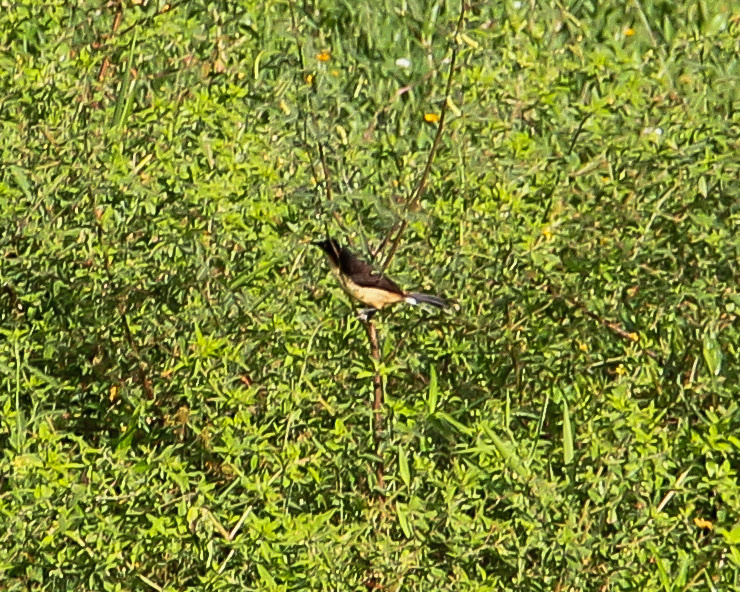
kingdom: Animalia
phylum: Chordata
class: Aves
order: Passeriformes
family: Donacobiidae
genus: Donacobius
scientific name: Donacobius atricapilla
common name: Black-capped donacobius
